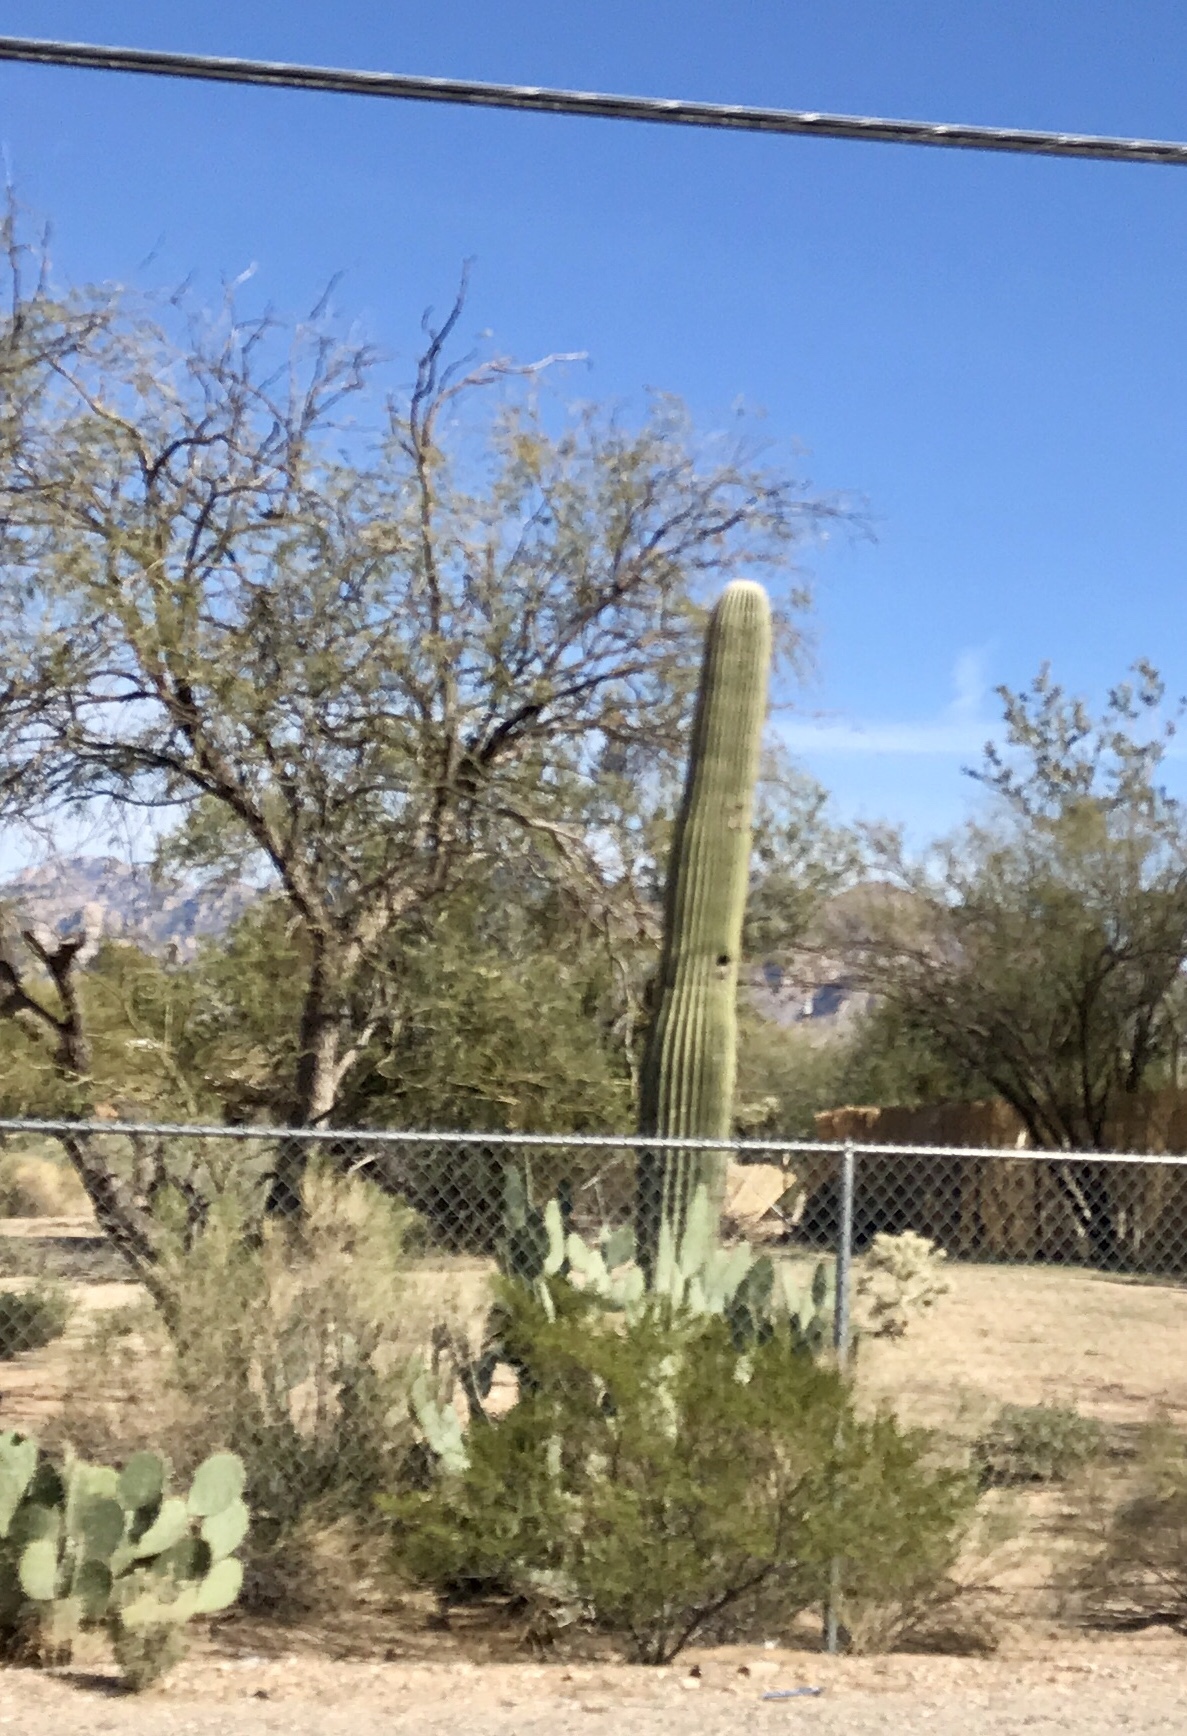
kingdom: Plantae
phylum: Tracheophyta
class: Magnoliopsida
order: Caryophyllales
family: Cactaceae
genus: Carnegiea
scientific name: Carnegiea gigantea
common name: Saguaro
